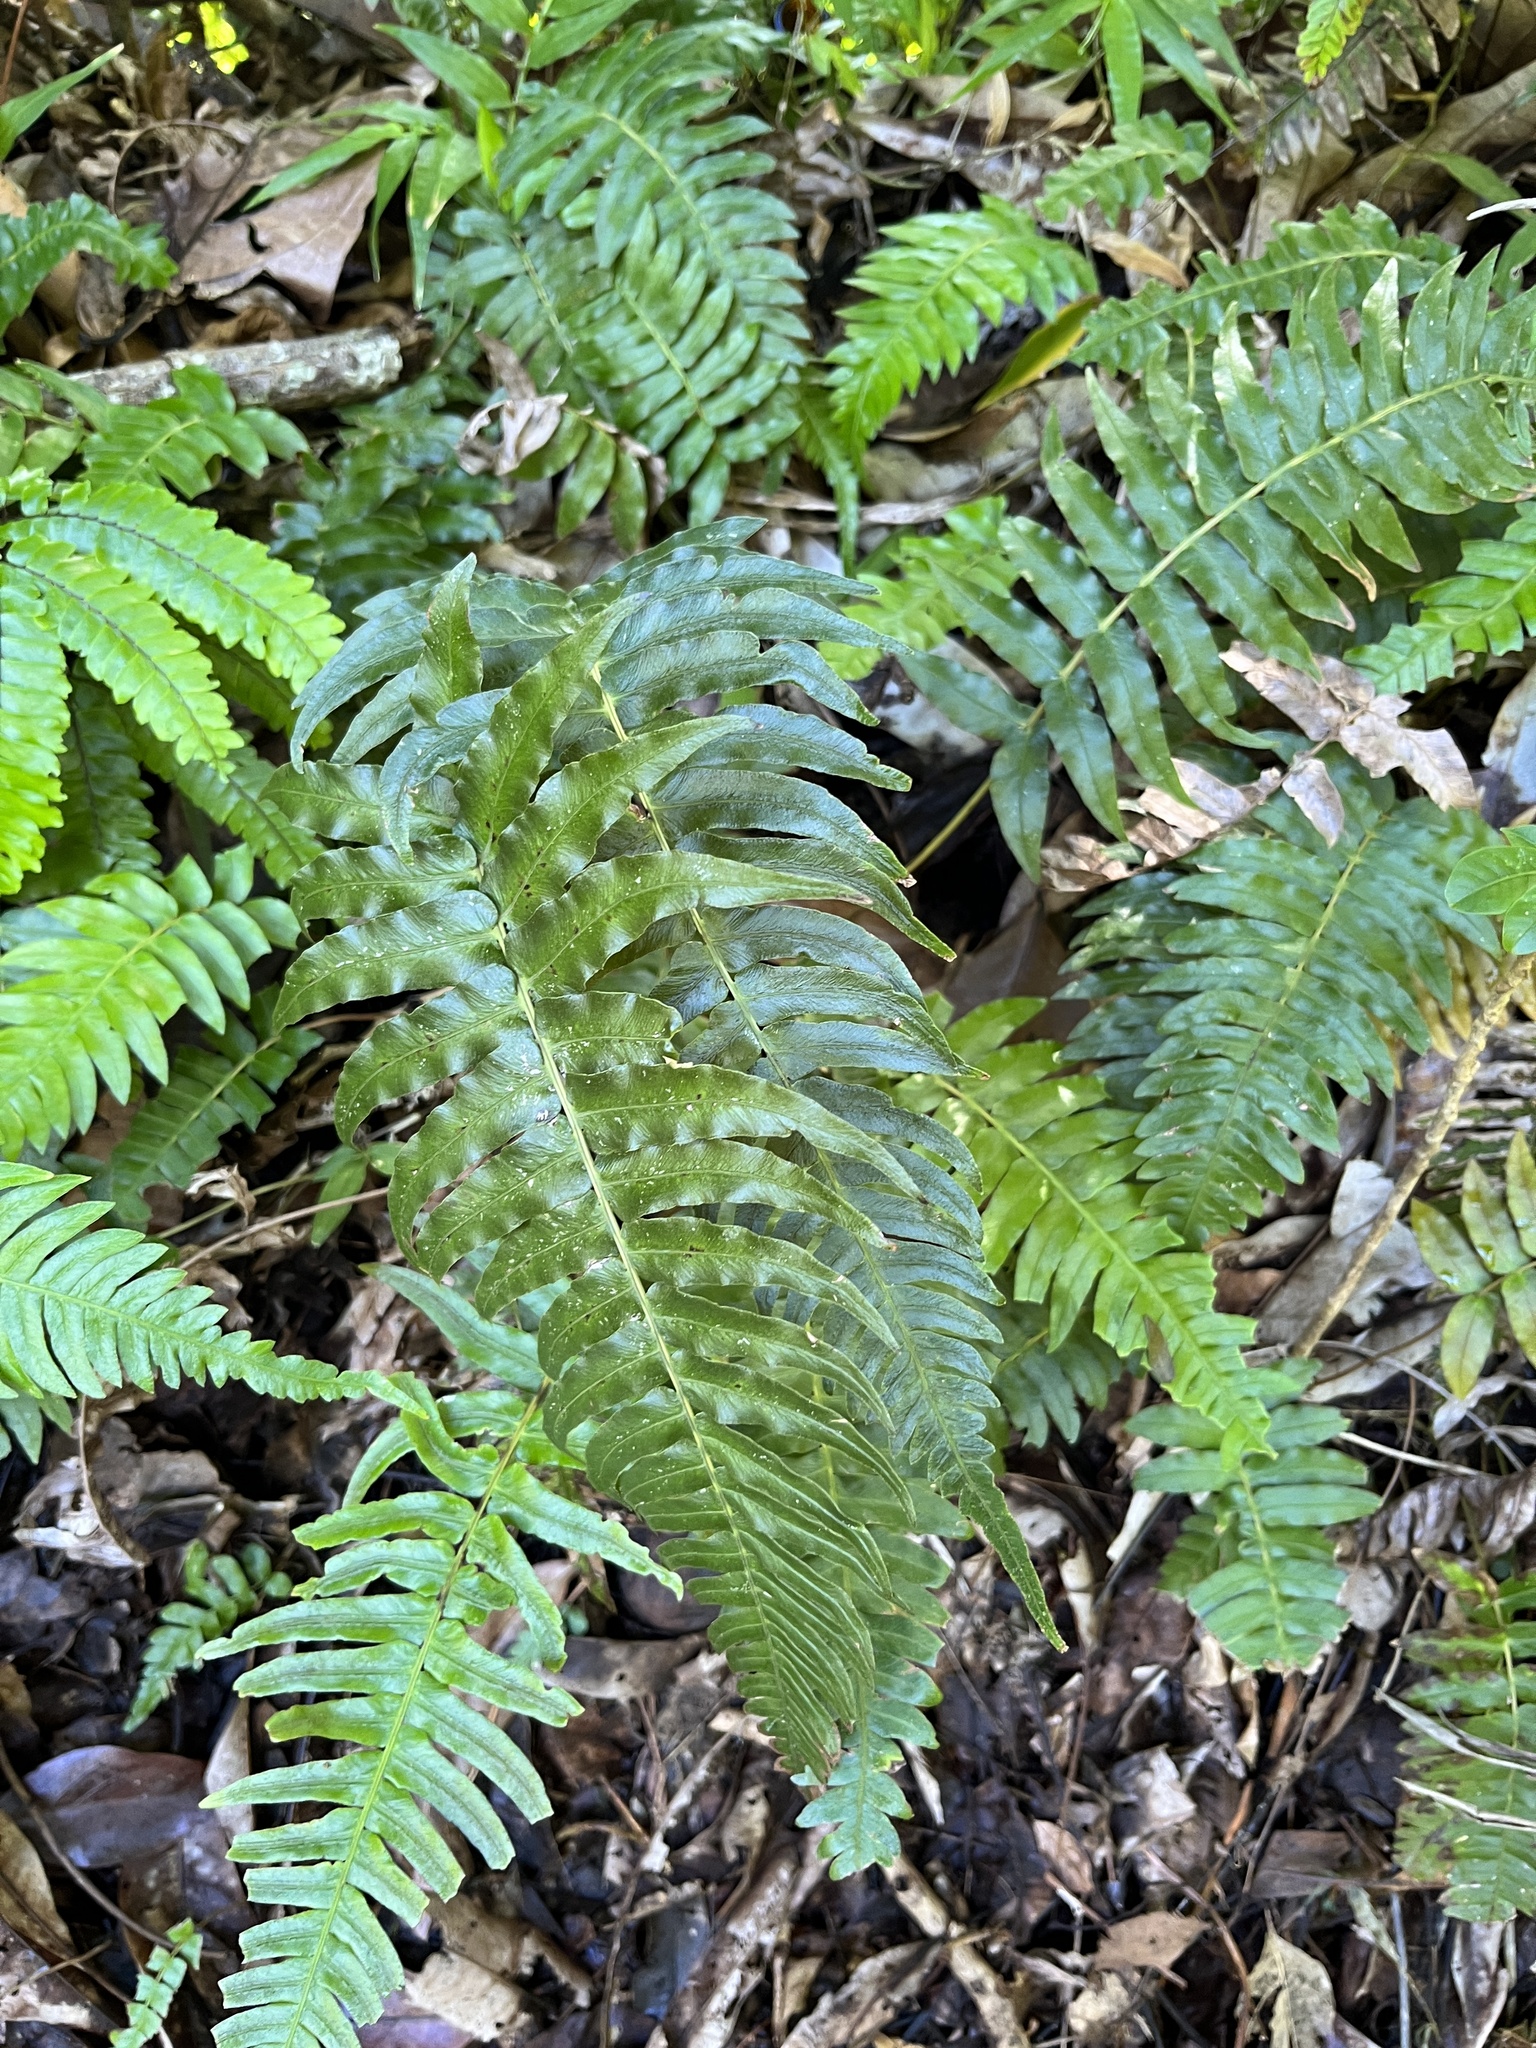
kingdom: Plantae
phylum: Tracheophyta
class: Polypodiopsida
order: Polypodiales
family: Blechnaceae
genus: Blechnum
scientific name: Blechnum occidentale
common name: Hammock fern
